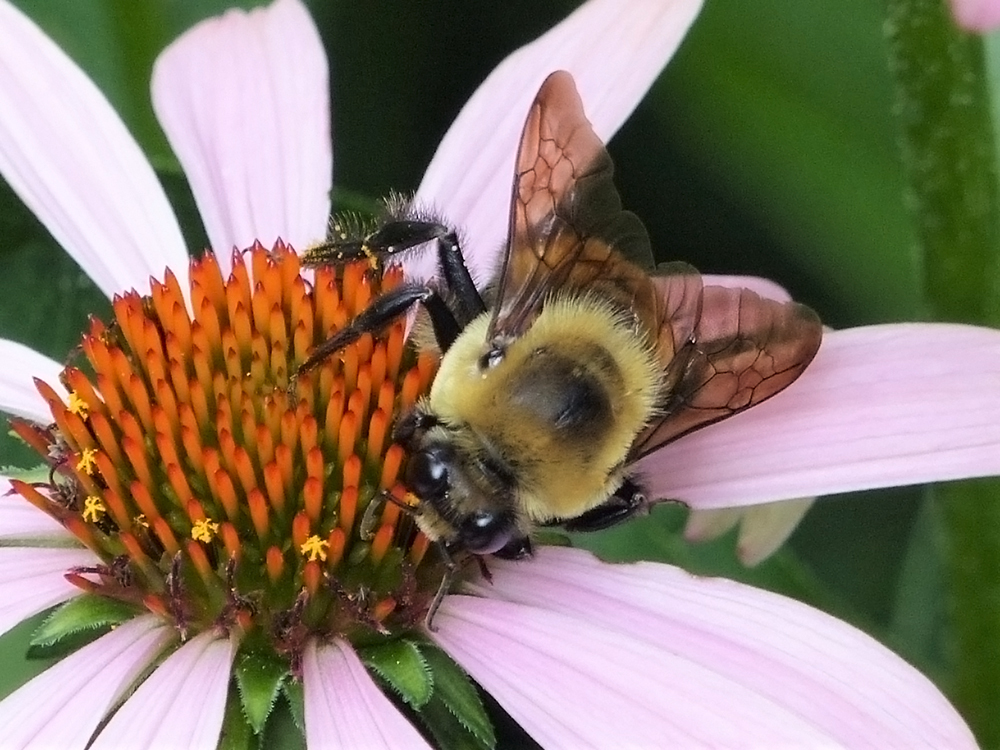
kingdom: Animalia
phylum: Arthropoda
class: Insecta
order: Hymenoptera
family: Apidae
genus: Bombus
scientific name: Bombus griseocollis
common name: Brown-belted bumble bee
